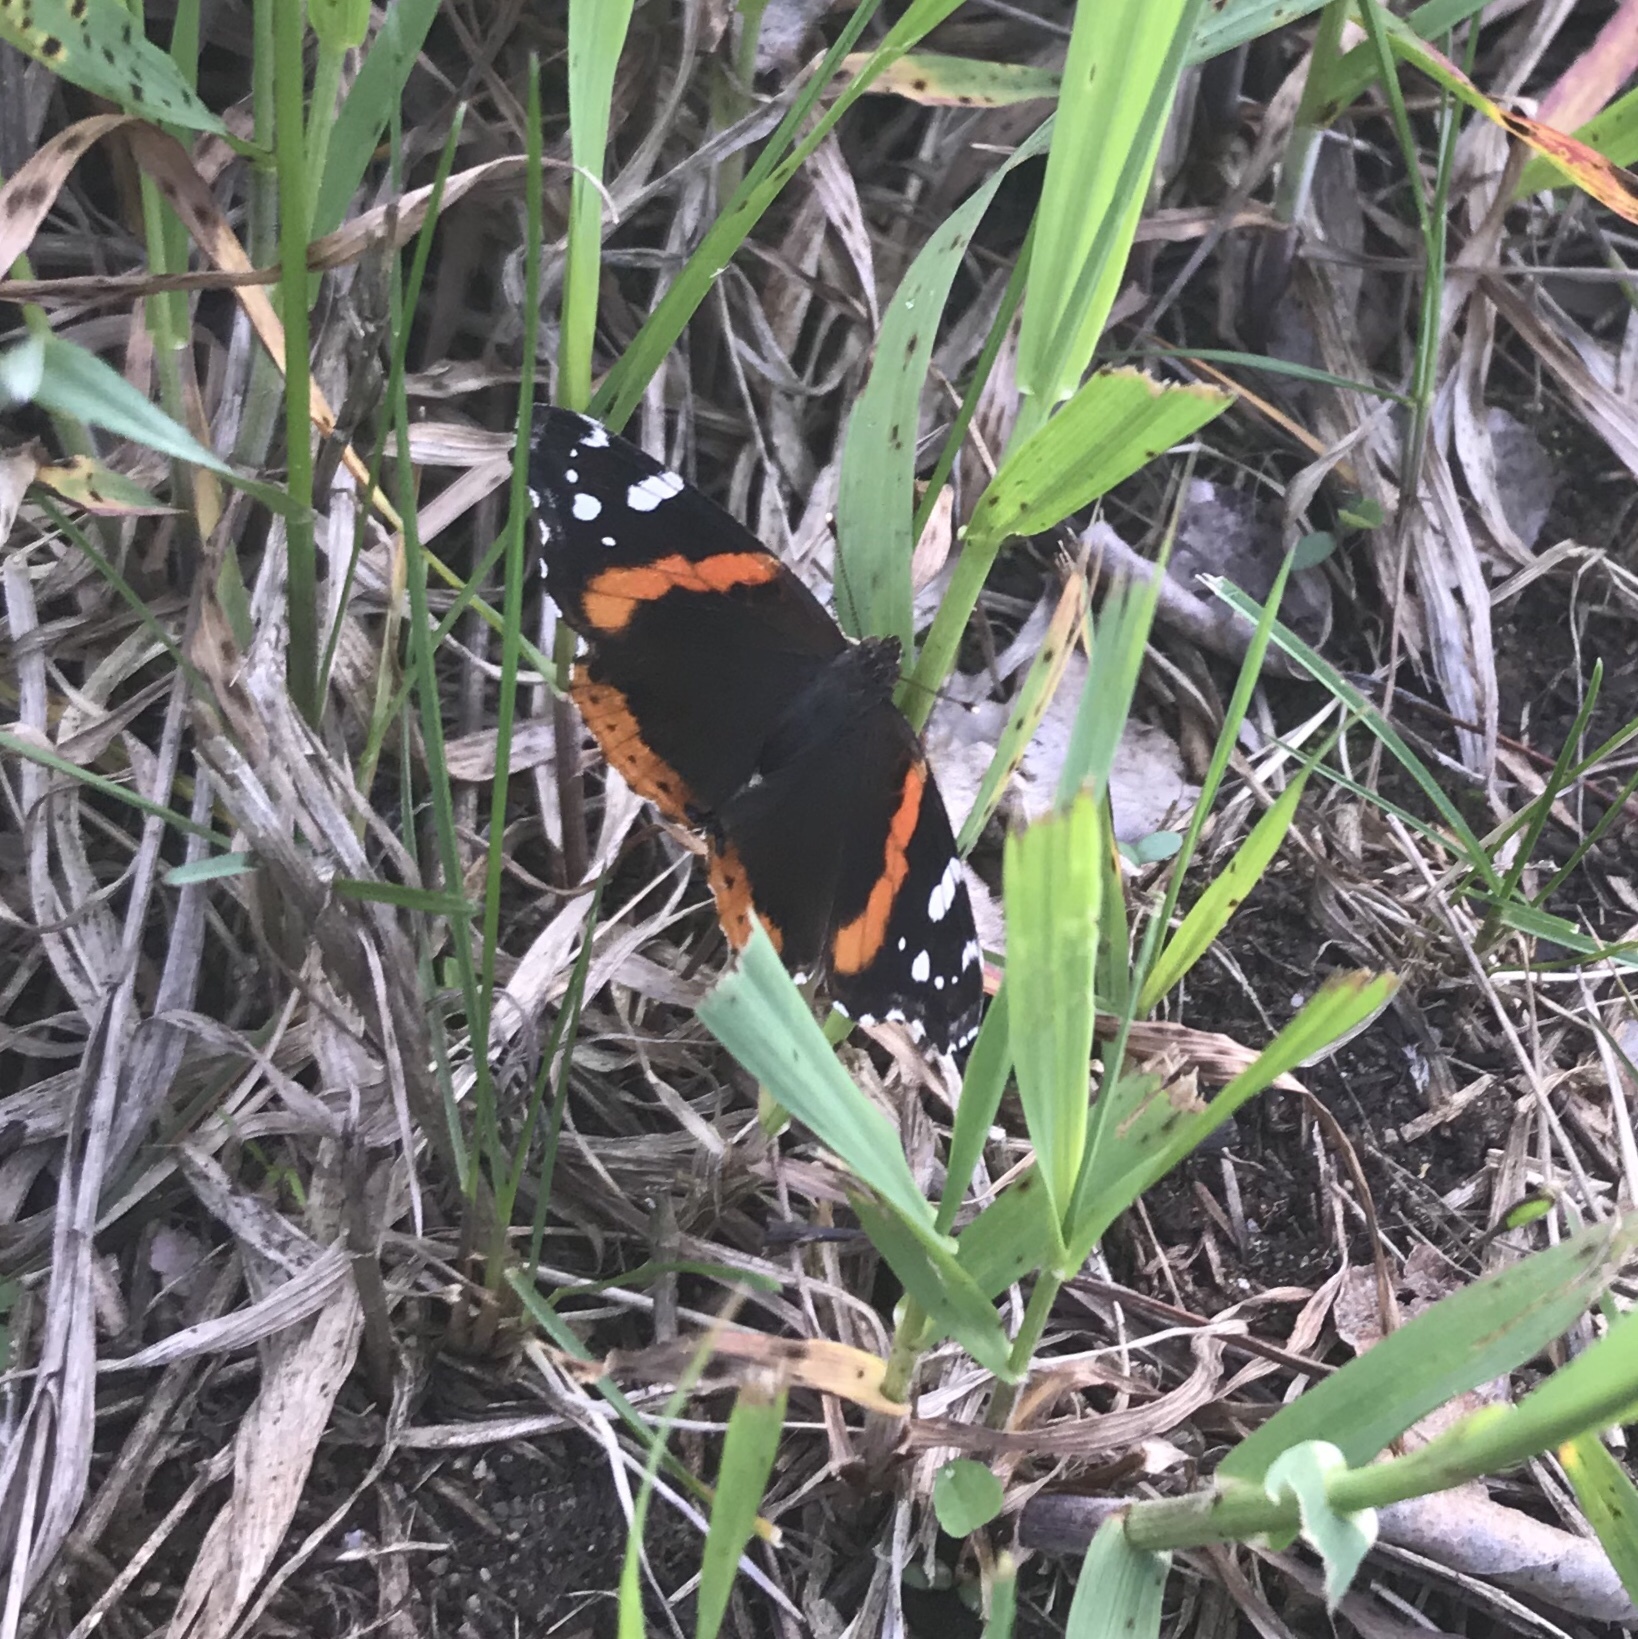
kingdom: Animalia
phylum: Arthropoda
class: Insecta
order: Lepidoptera
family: Nymphalidae
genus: Vanessa
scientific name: Vanessa atalanta
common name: Red admiral
